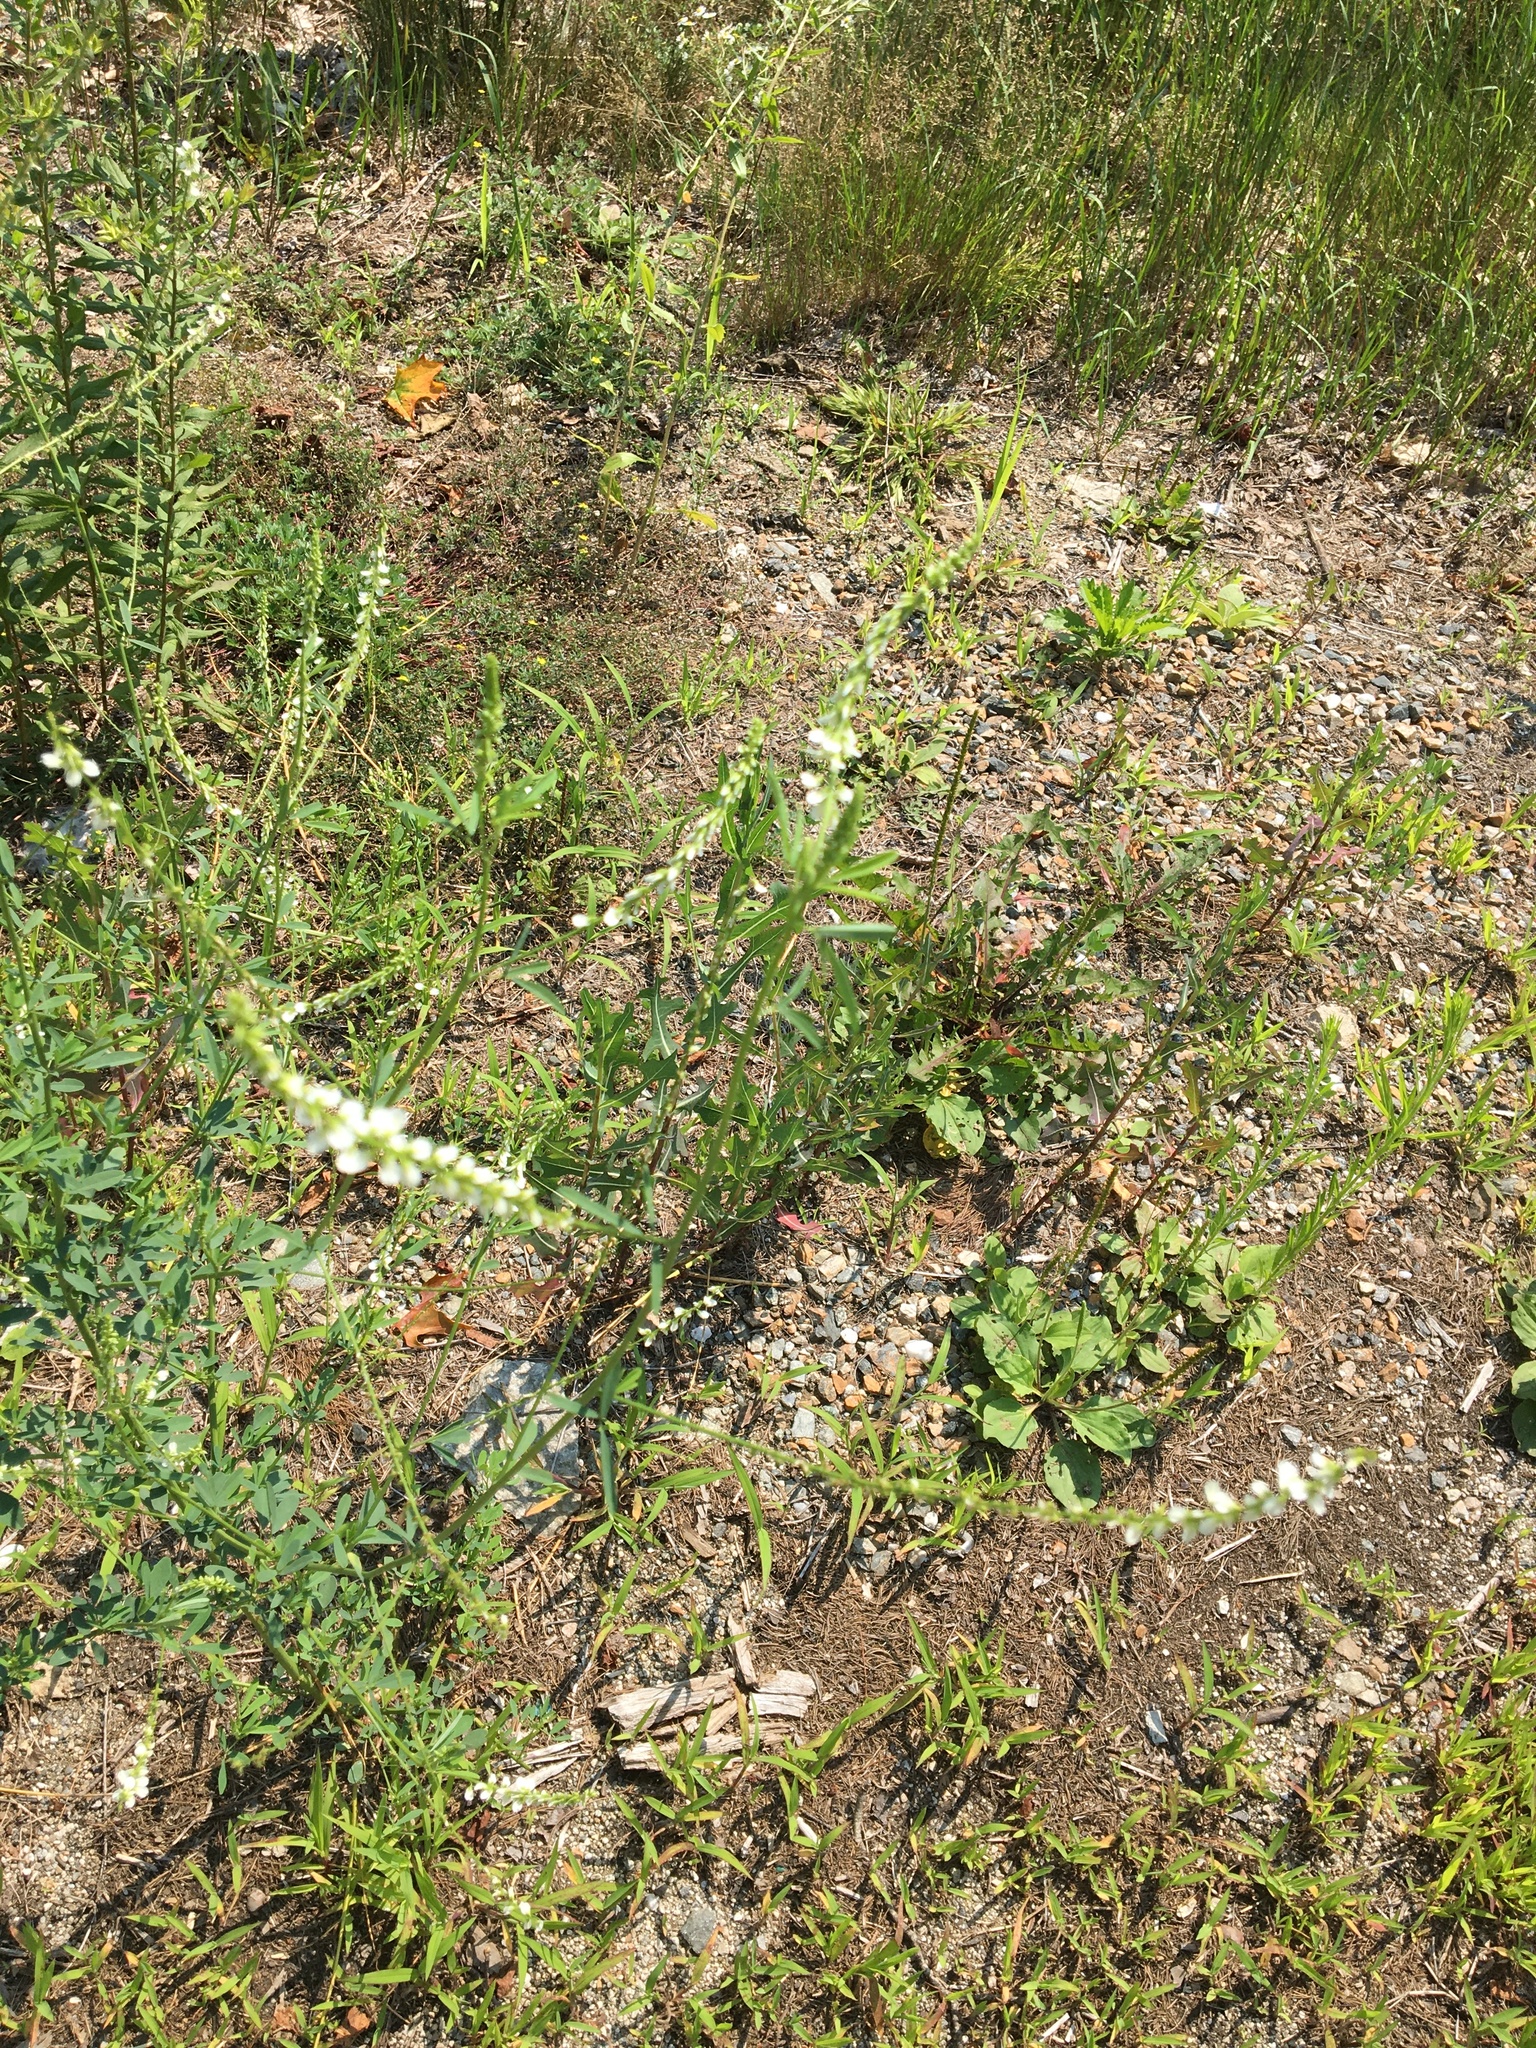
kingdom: Plantae
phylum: Tracheophyta
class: Magnoliopsida
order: Fabales
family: Fabaceae
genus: Melilotus
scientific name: Melilotus albus
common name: White melilot
